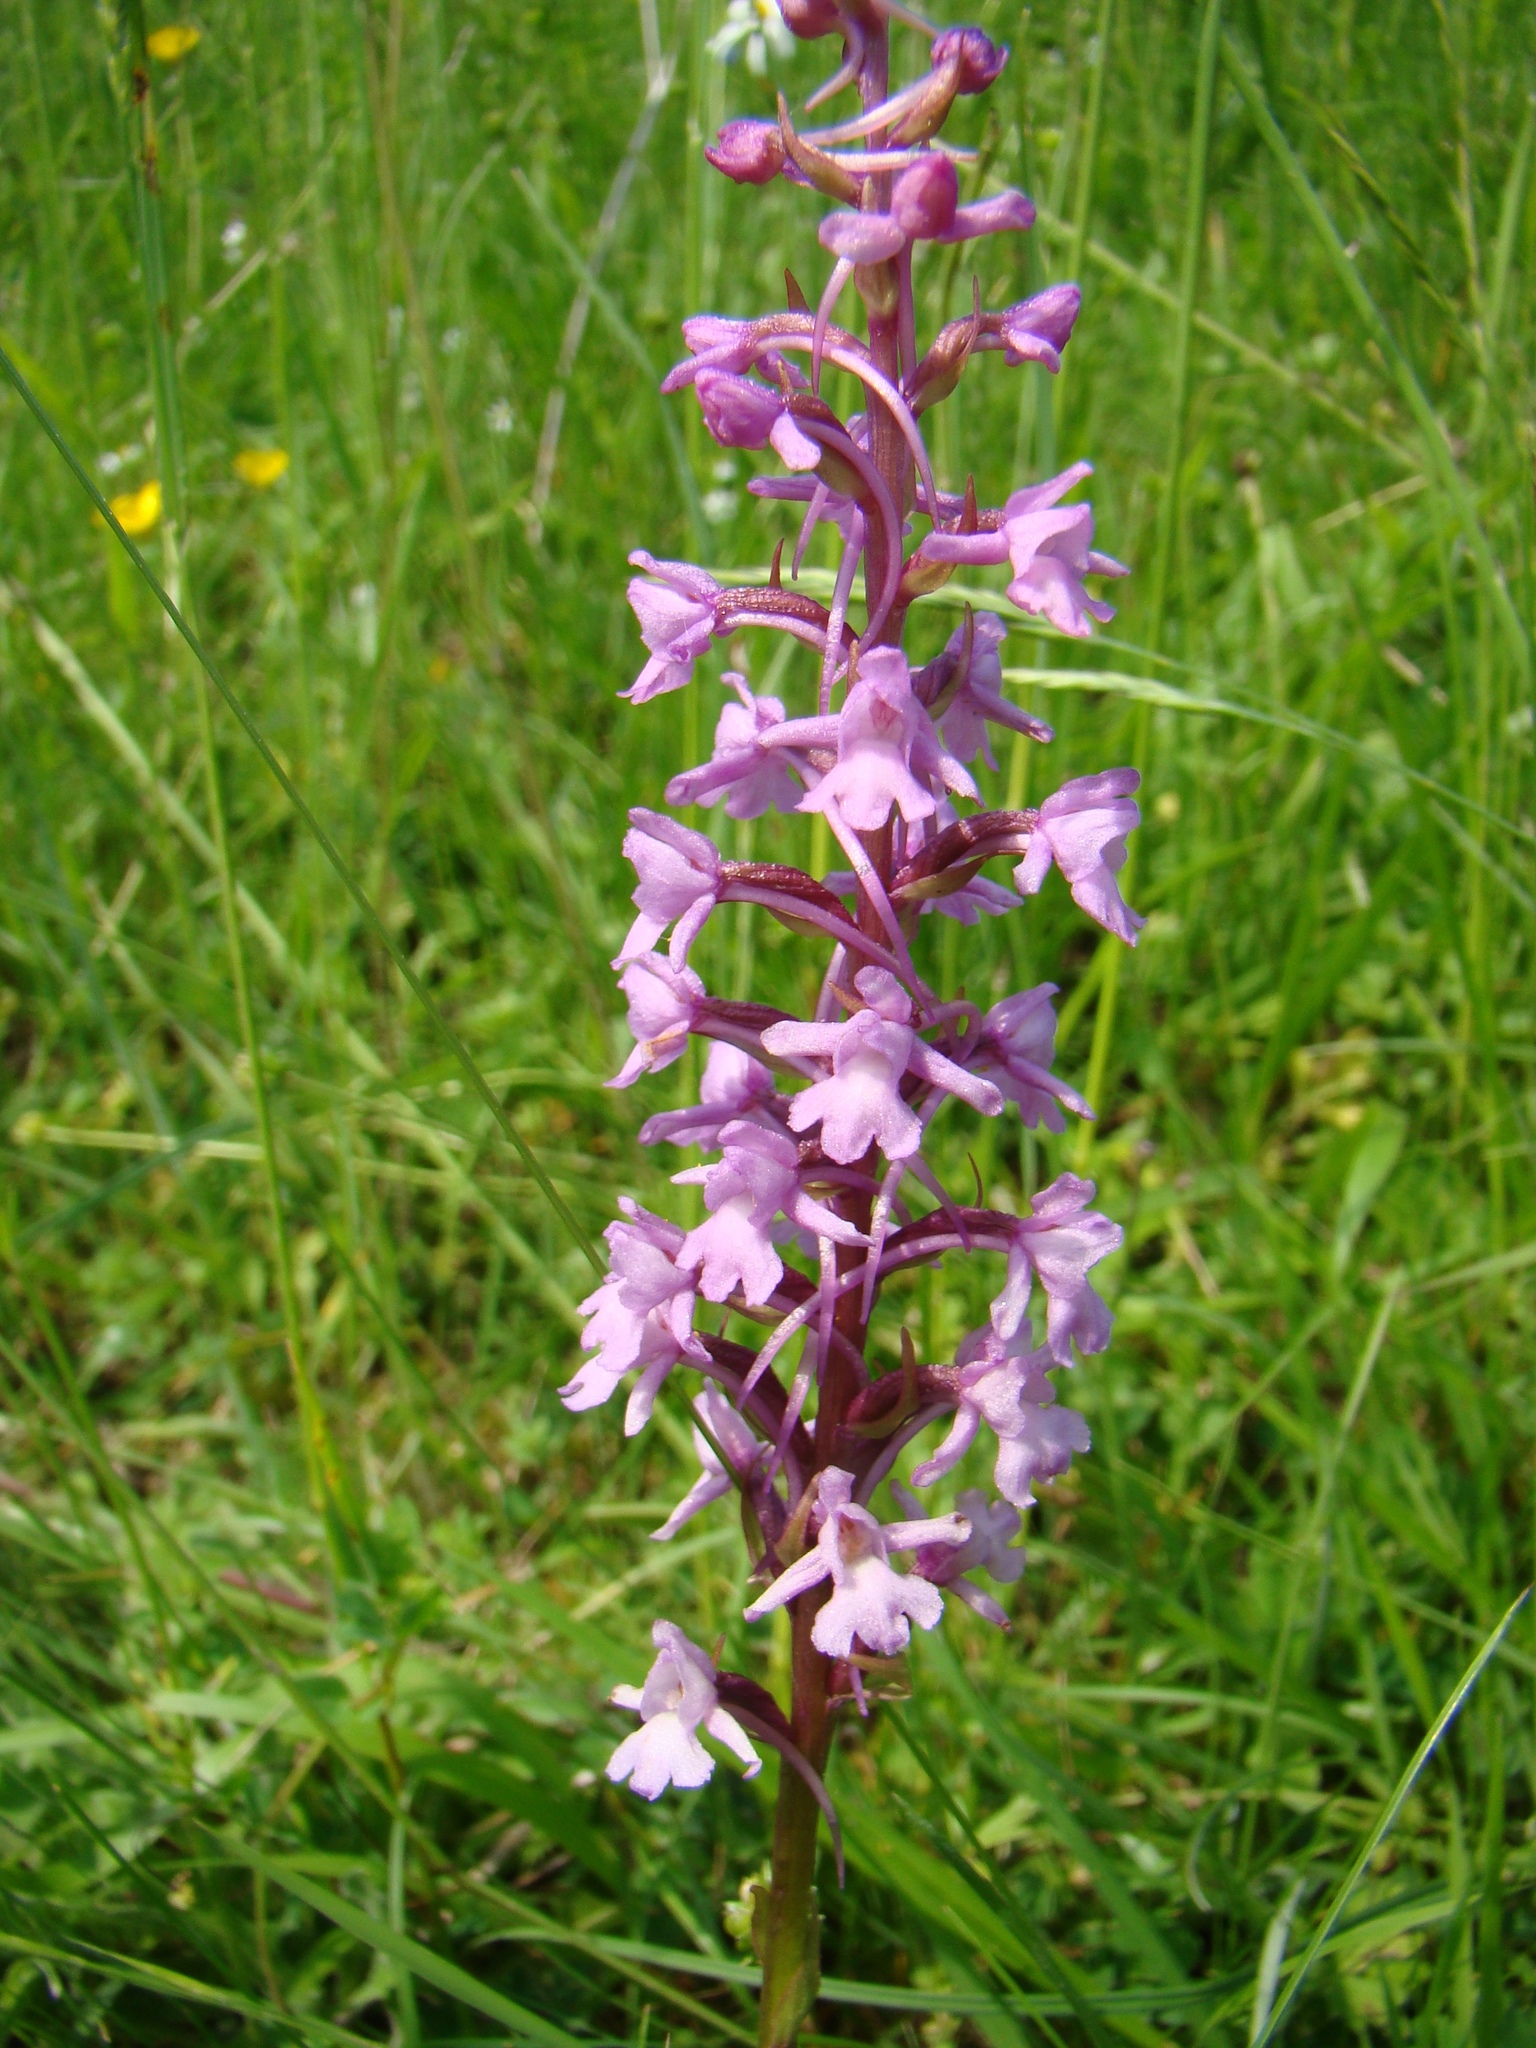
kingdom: Plantae
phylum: Tracheophyta
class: Liliopsida
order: Asparagales
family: Orchidaceae
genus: Gymnadenia
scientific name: Gymnadenia conopsea
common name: Fragrant orchid
